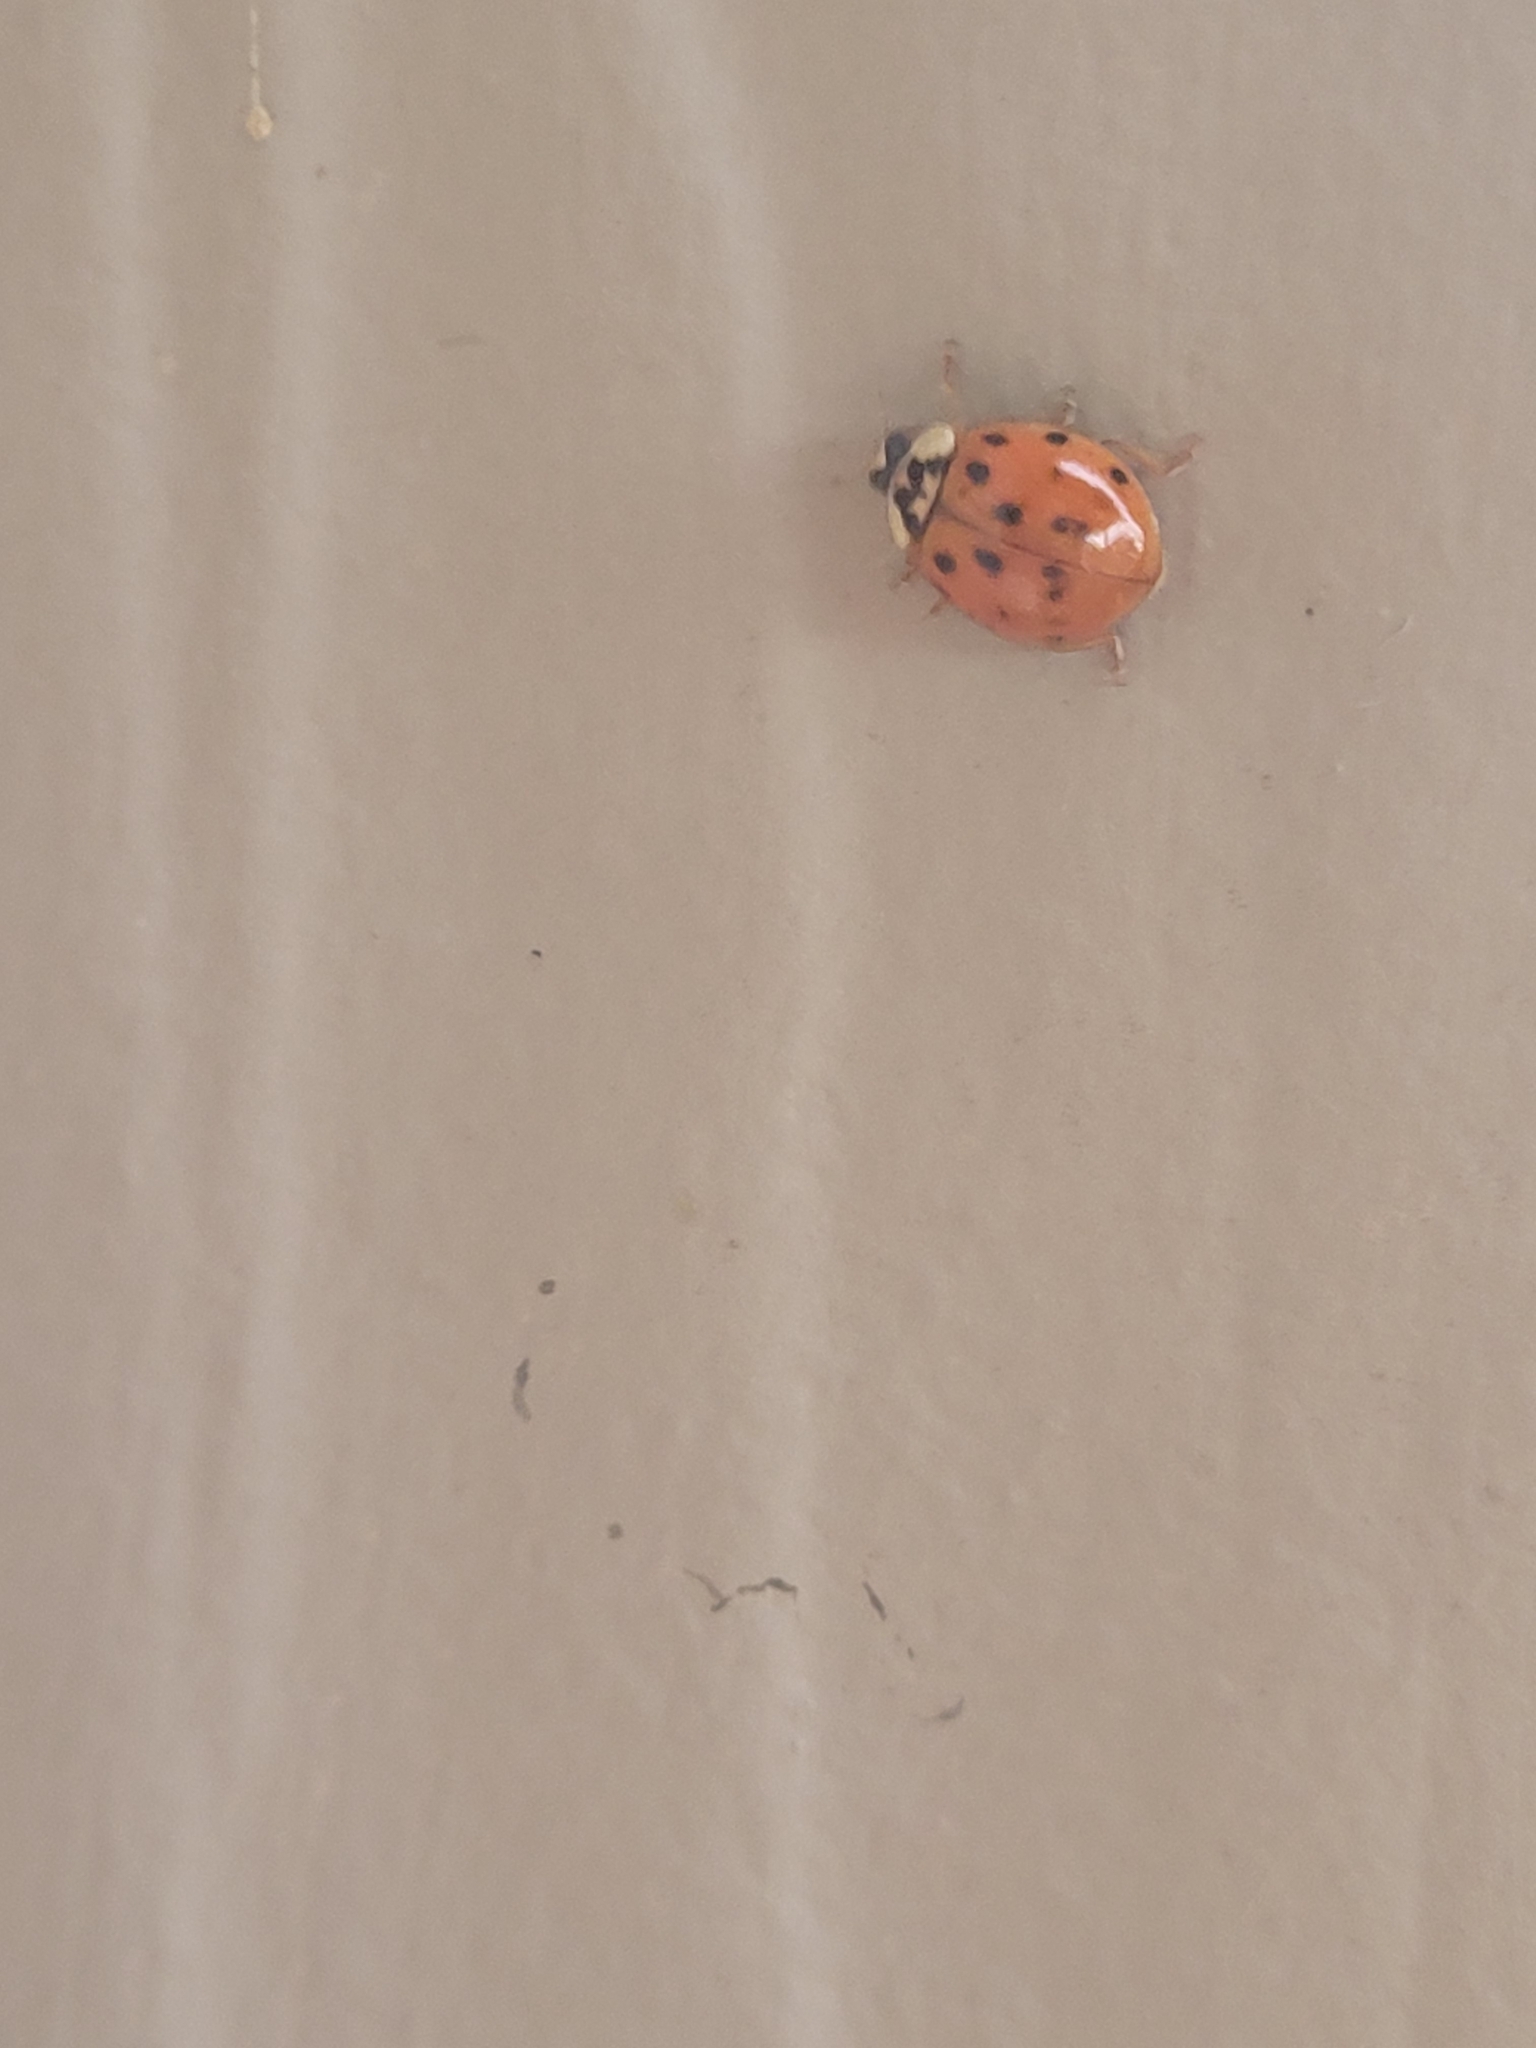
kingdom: Animalia
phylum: Arthropoda
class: Insecta
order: Coleoptera
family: Coccinellidae
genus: Harmonia
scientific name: Harmonia axyridis
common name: Harlequin ladybird
